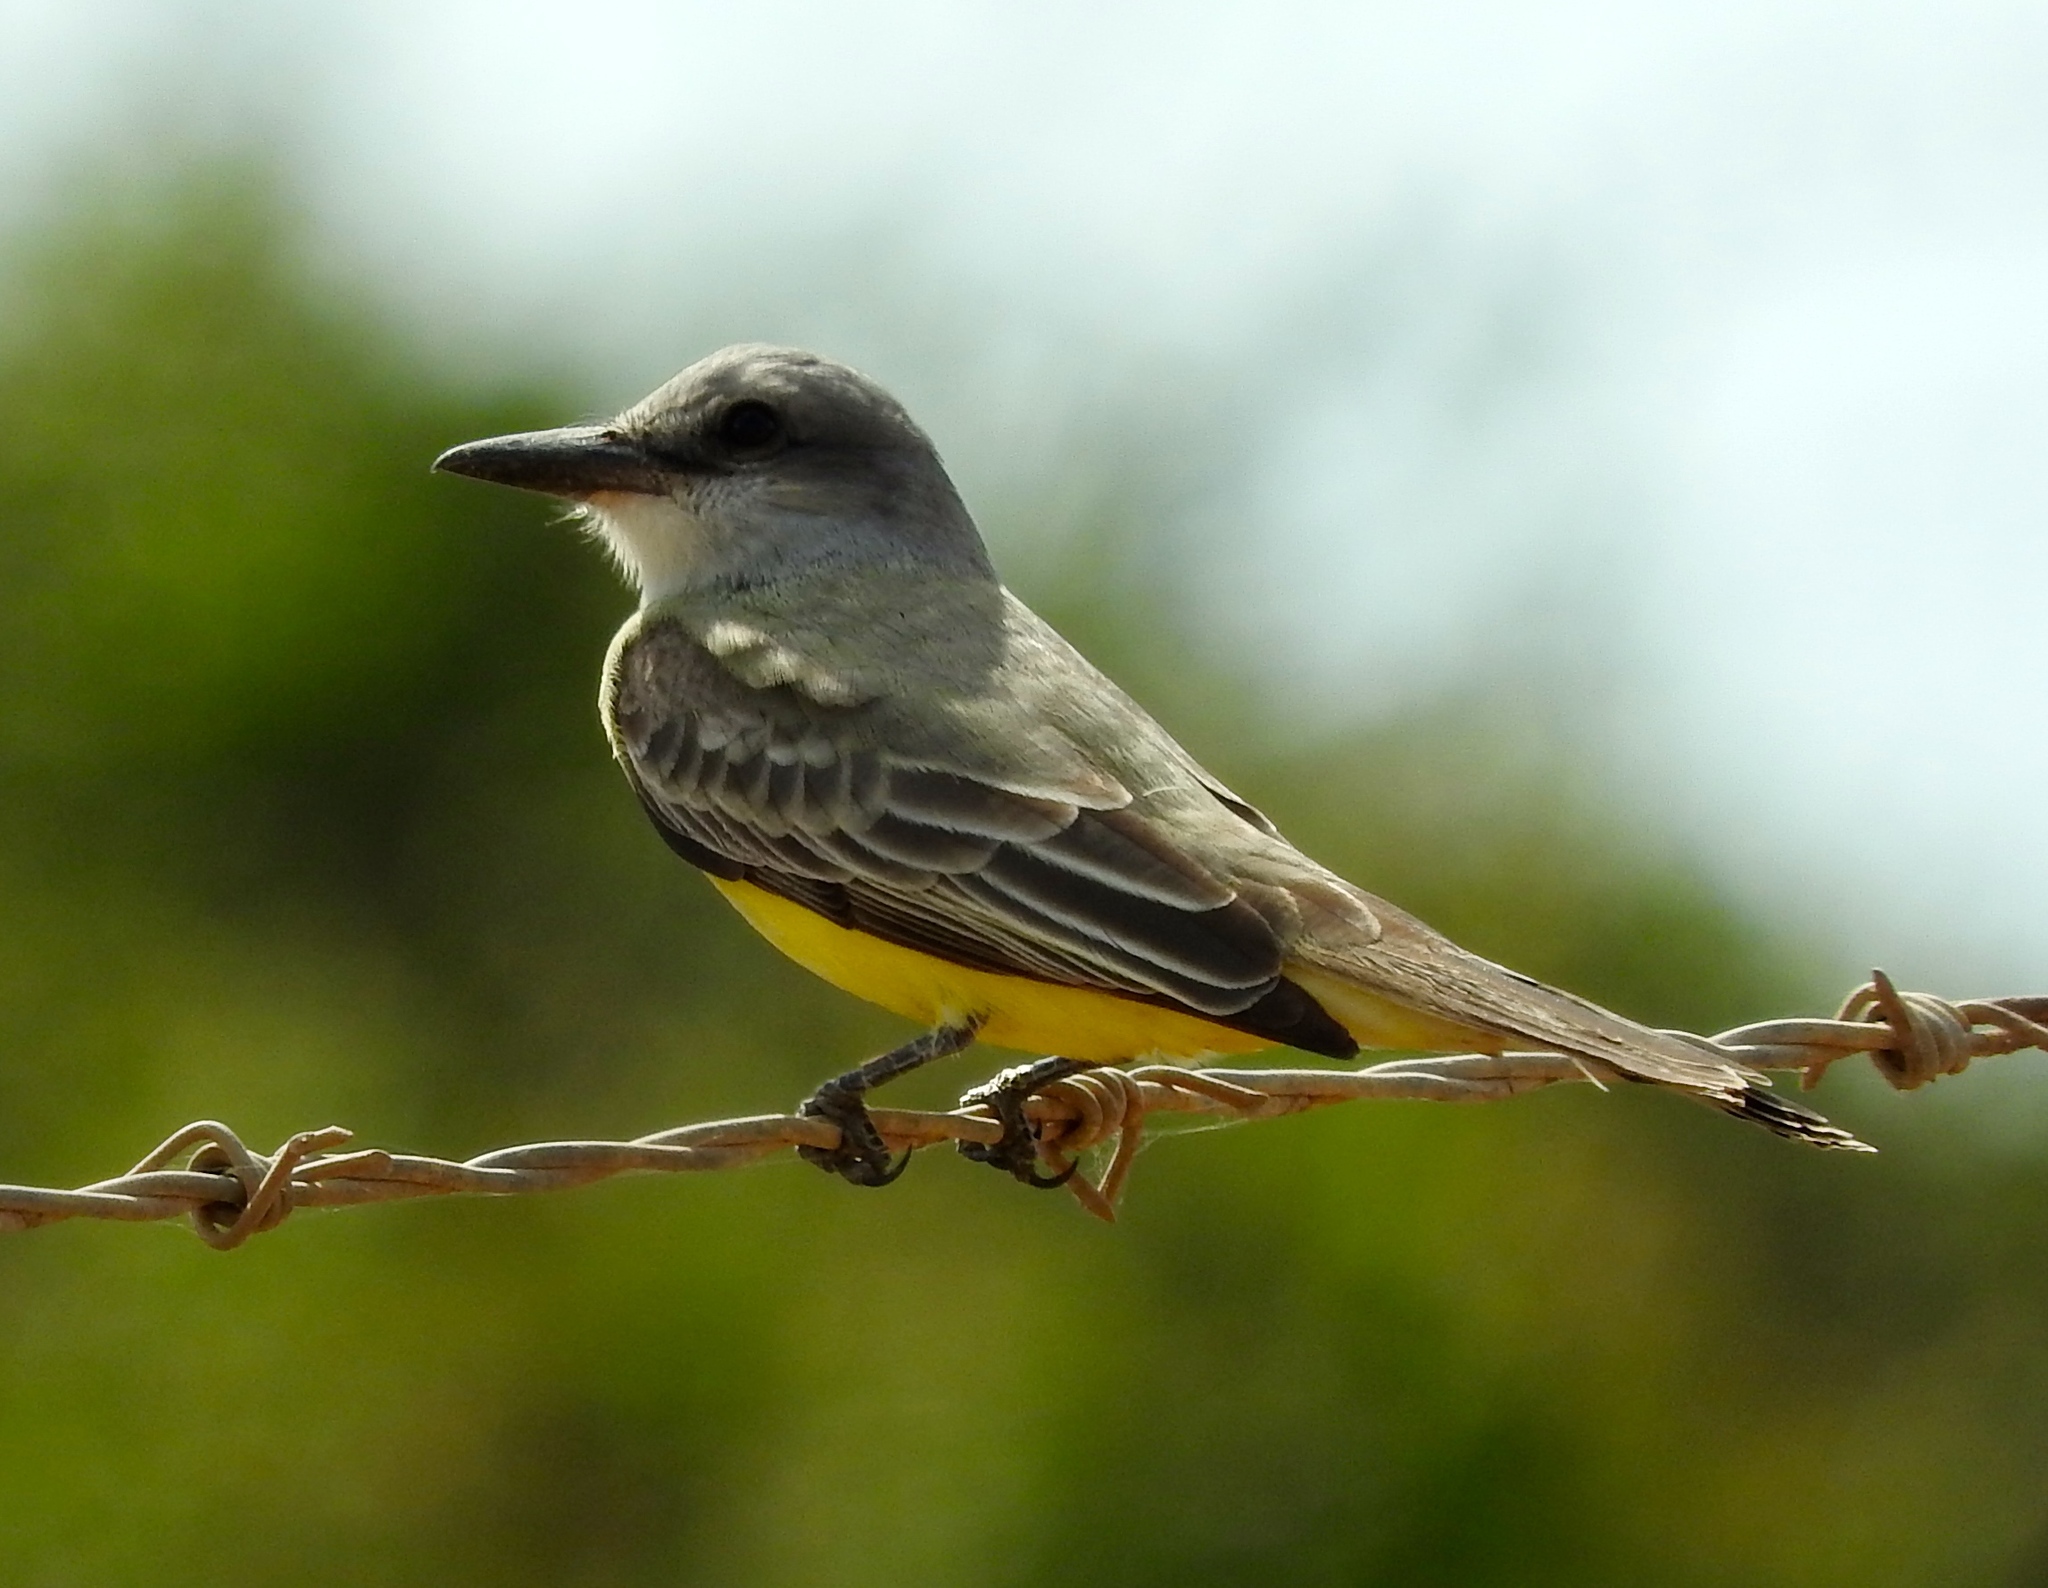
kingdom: Animalia
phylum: Chordata
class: Aves
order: Passeriformes
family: Tyrannidae
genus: Tyrannus
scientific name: Tyrannus melancholicus
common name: Tropical kingbird
